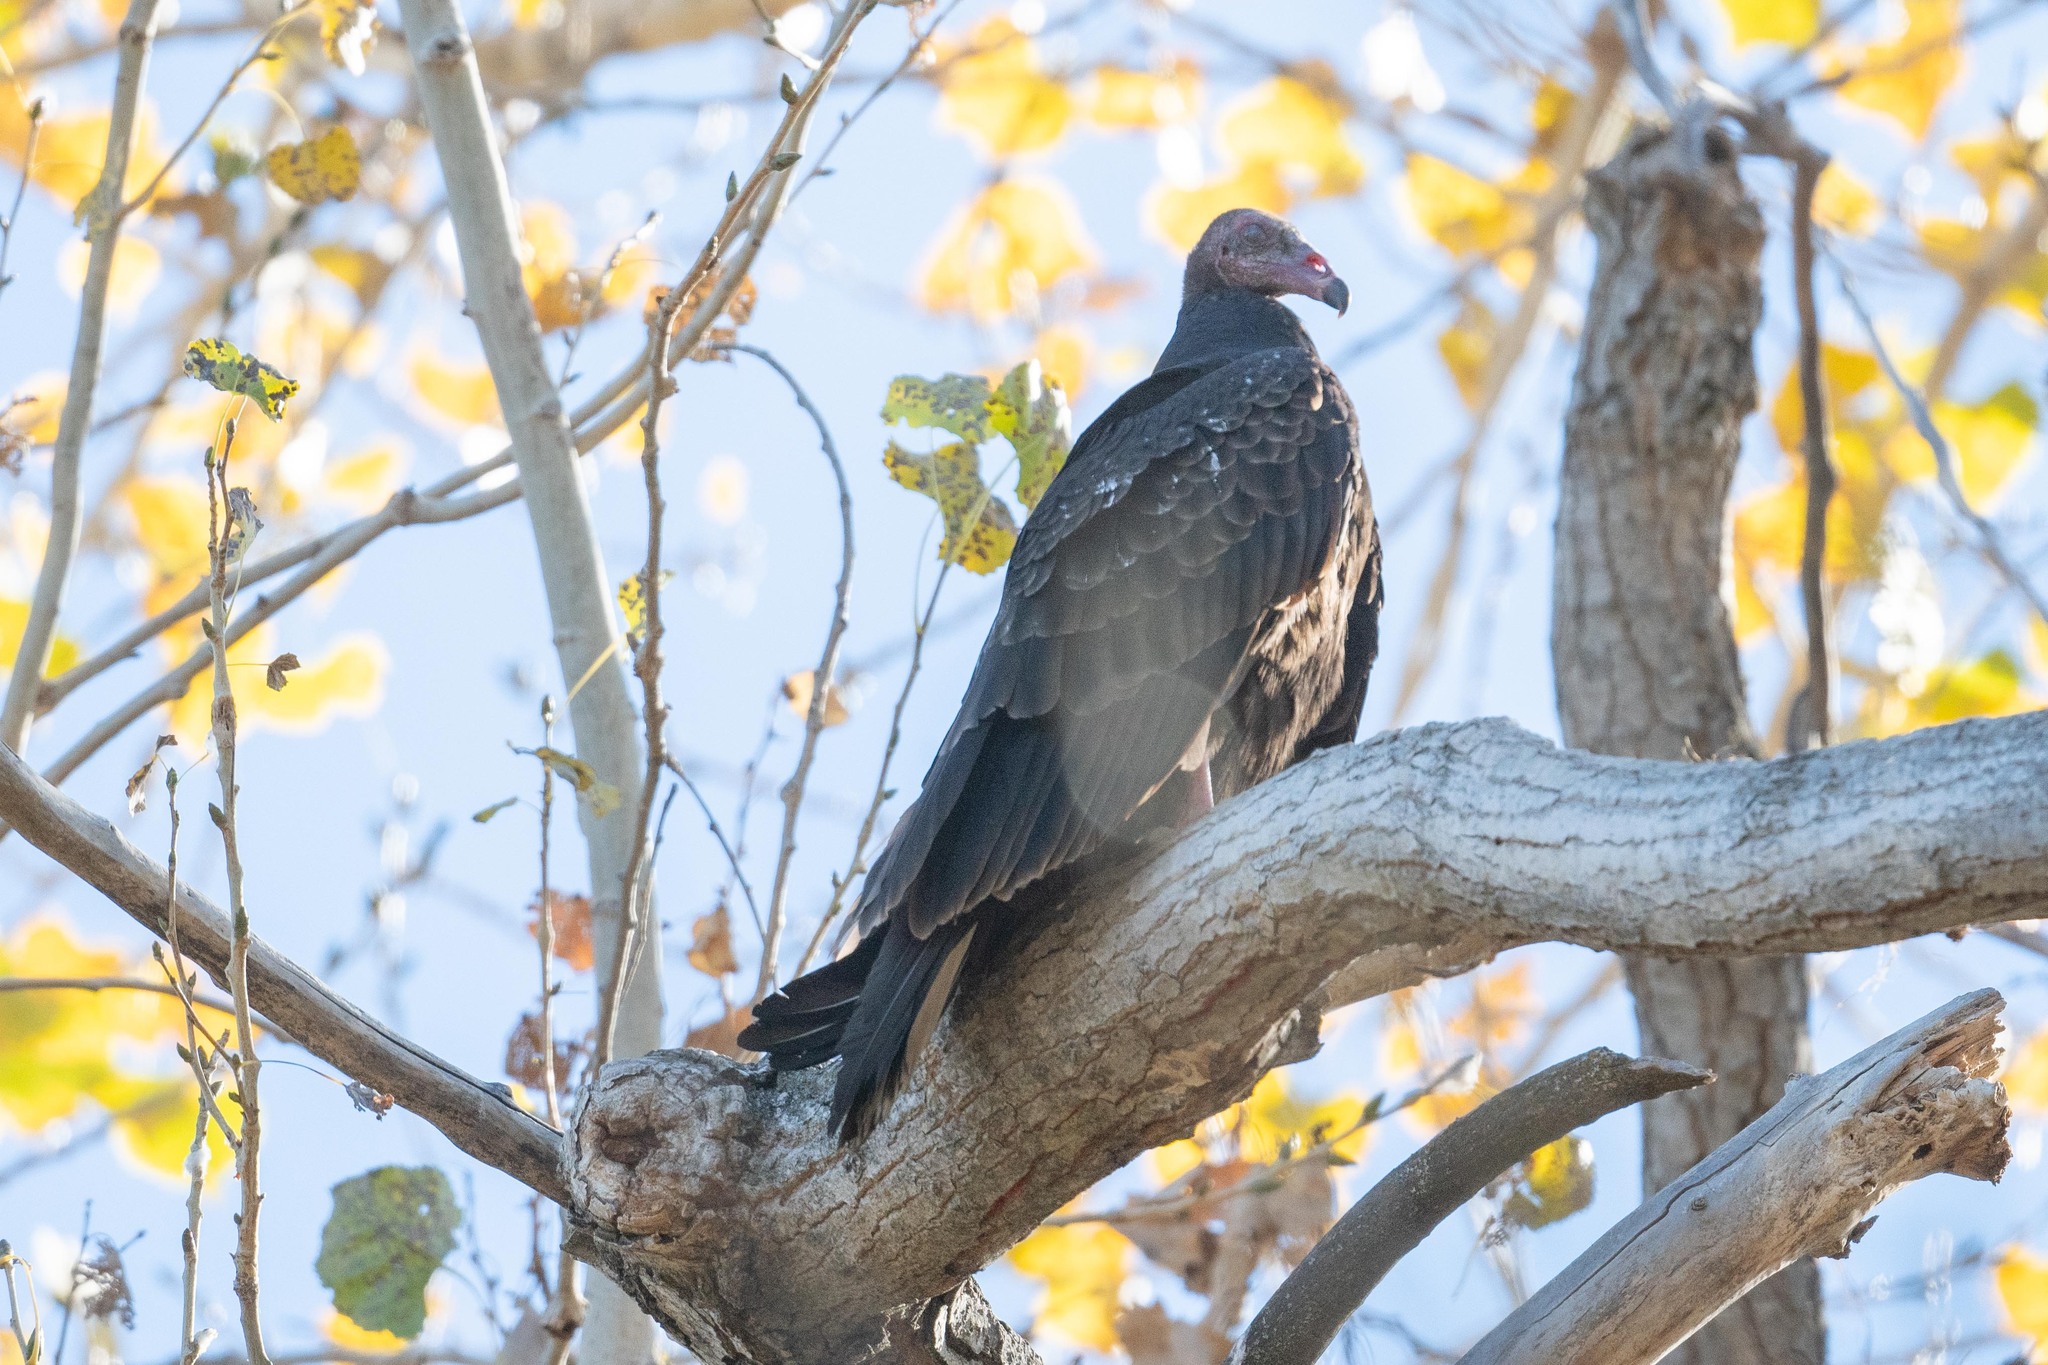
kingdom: Animalia
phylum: Chordata
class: Aves
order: Accipitriformes
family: Cathartidae
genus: Cathartes
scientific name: Cathartes aura
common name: Turkey vulture
